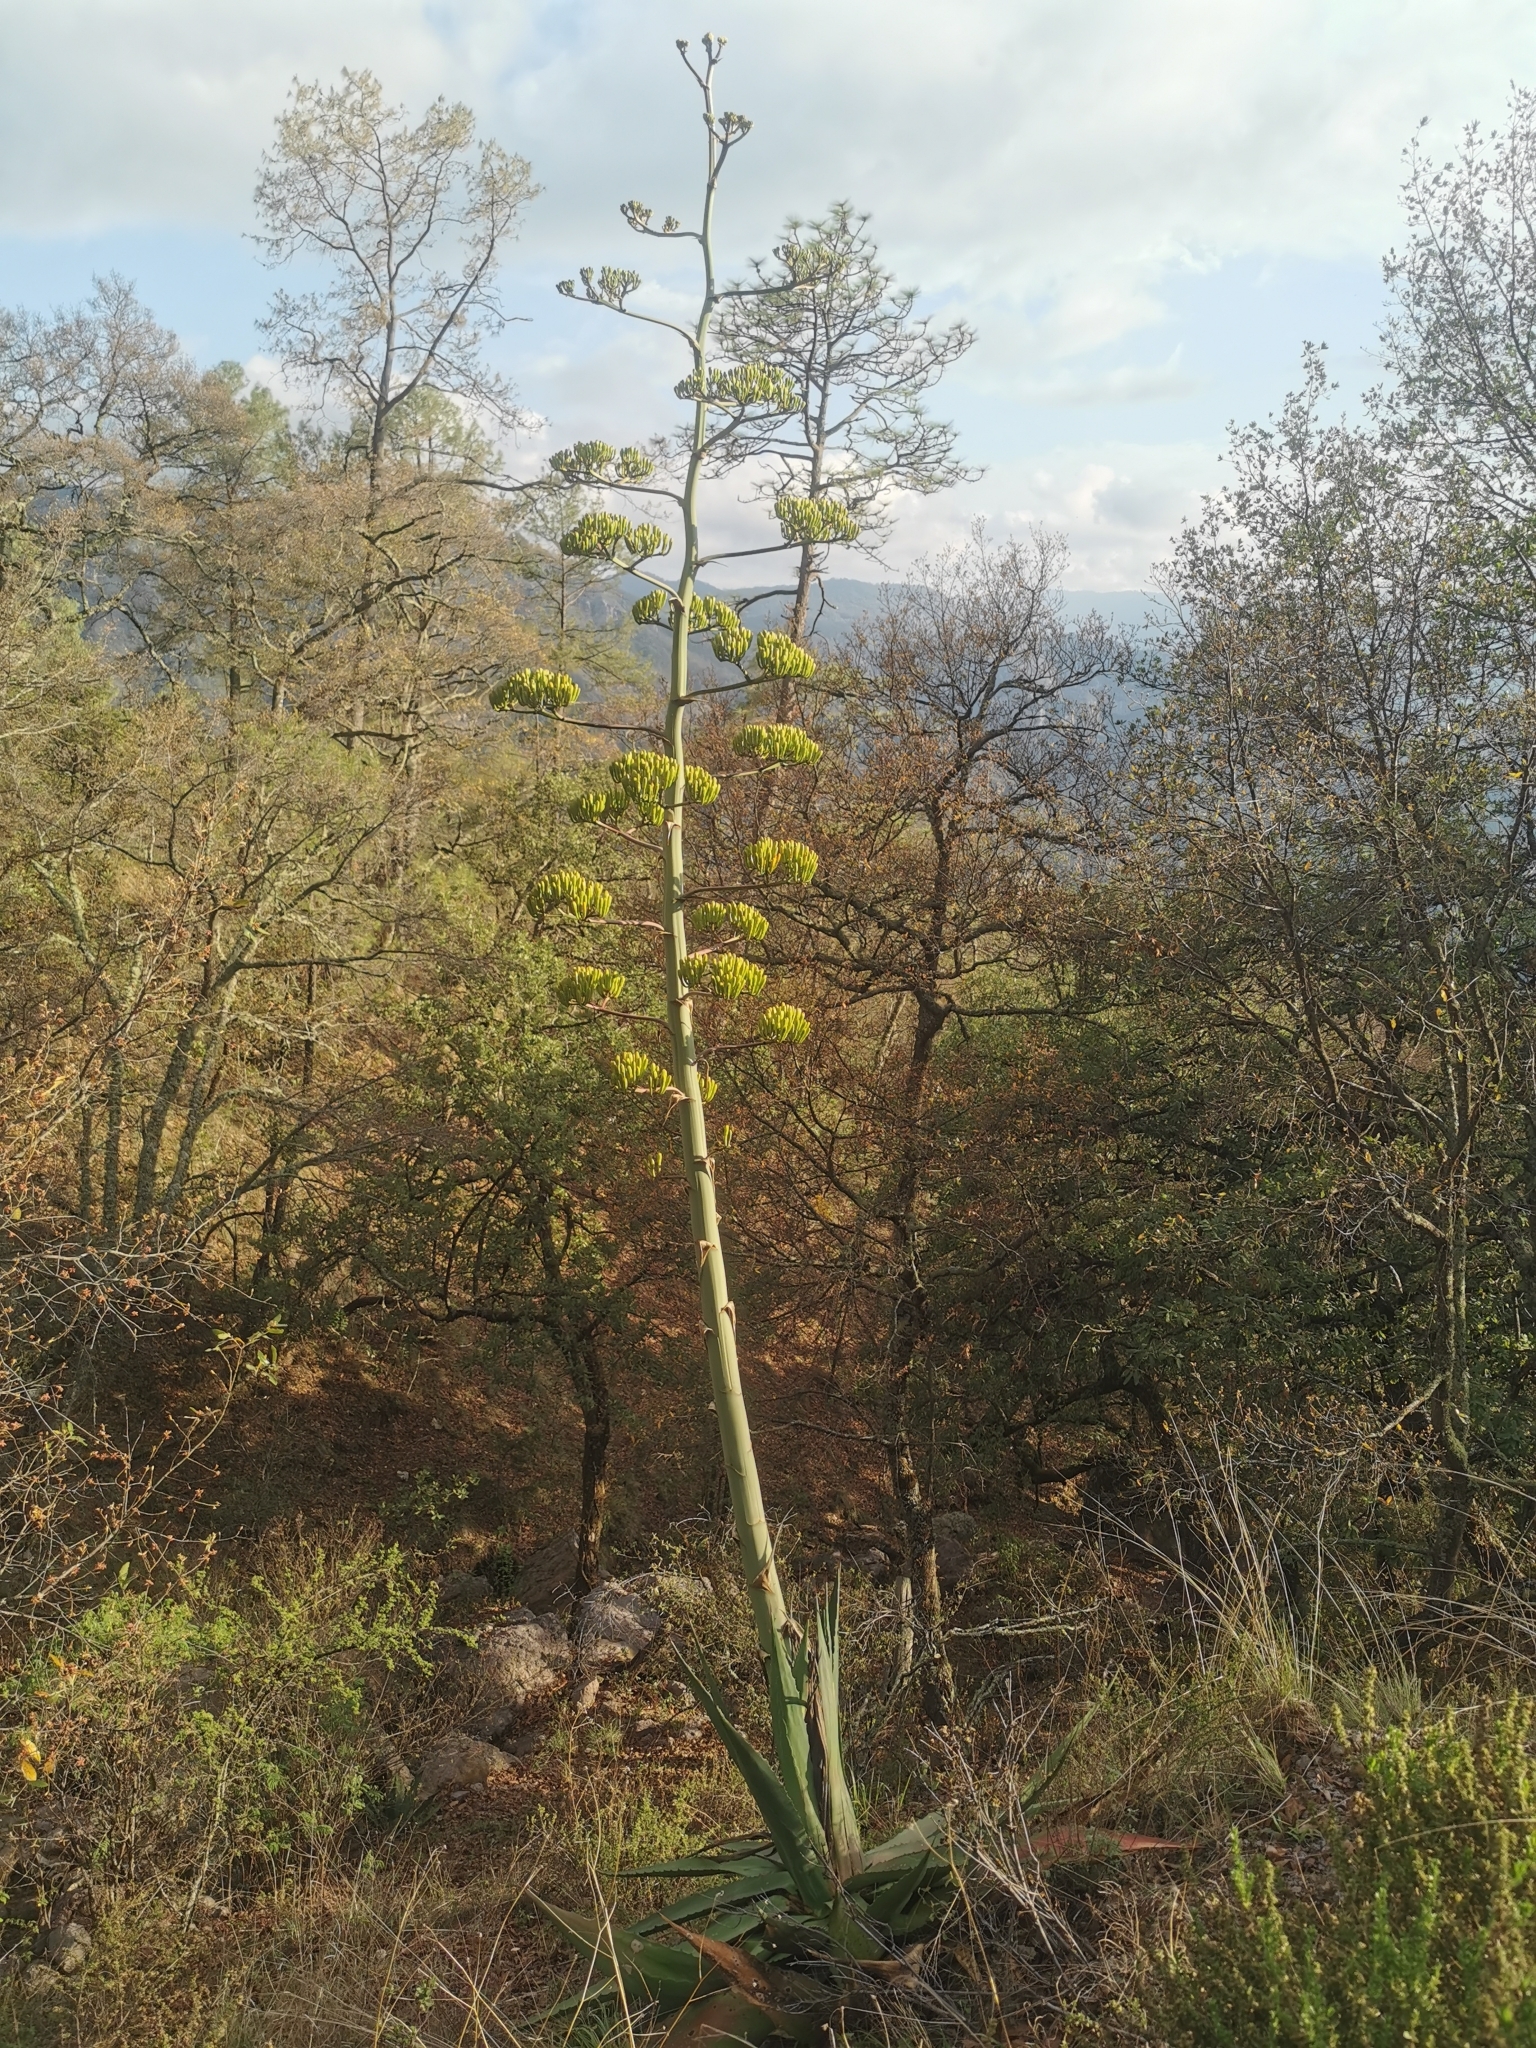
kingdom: Plantae
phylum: Tracheophyta
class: Liliopsida
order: Asparagales
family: Asparagaceae
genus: Agave
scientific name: Agave wocomahi
